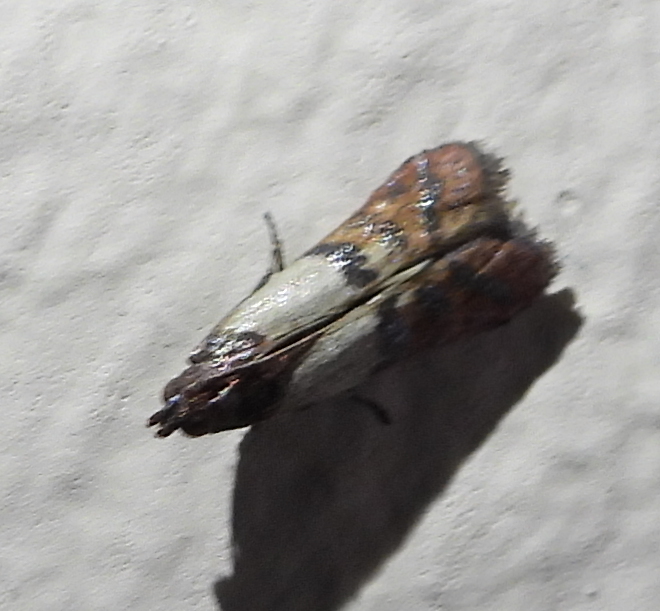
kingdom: Animalia
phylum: Arthropoda
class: Insecta
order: Lepidoptera
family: Pyralidae
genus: Plodia
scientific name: Plodia interpunctella
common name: Indian meal moth
